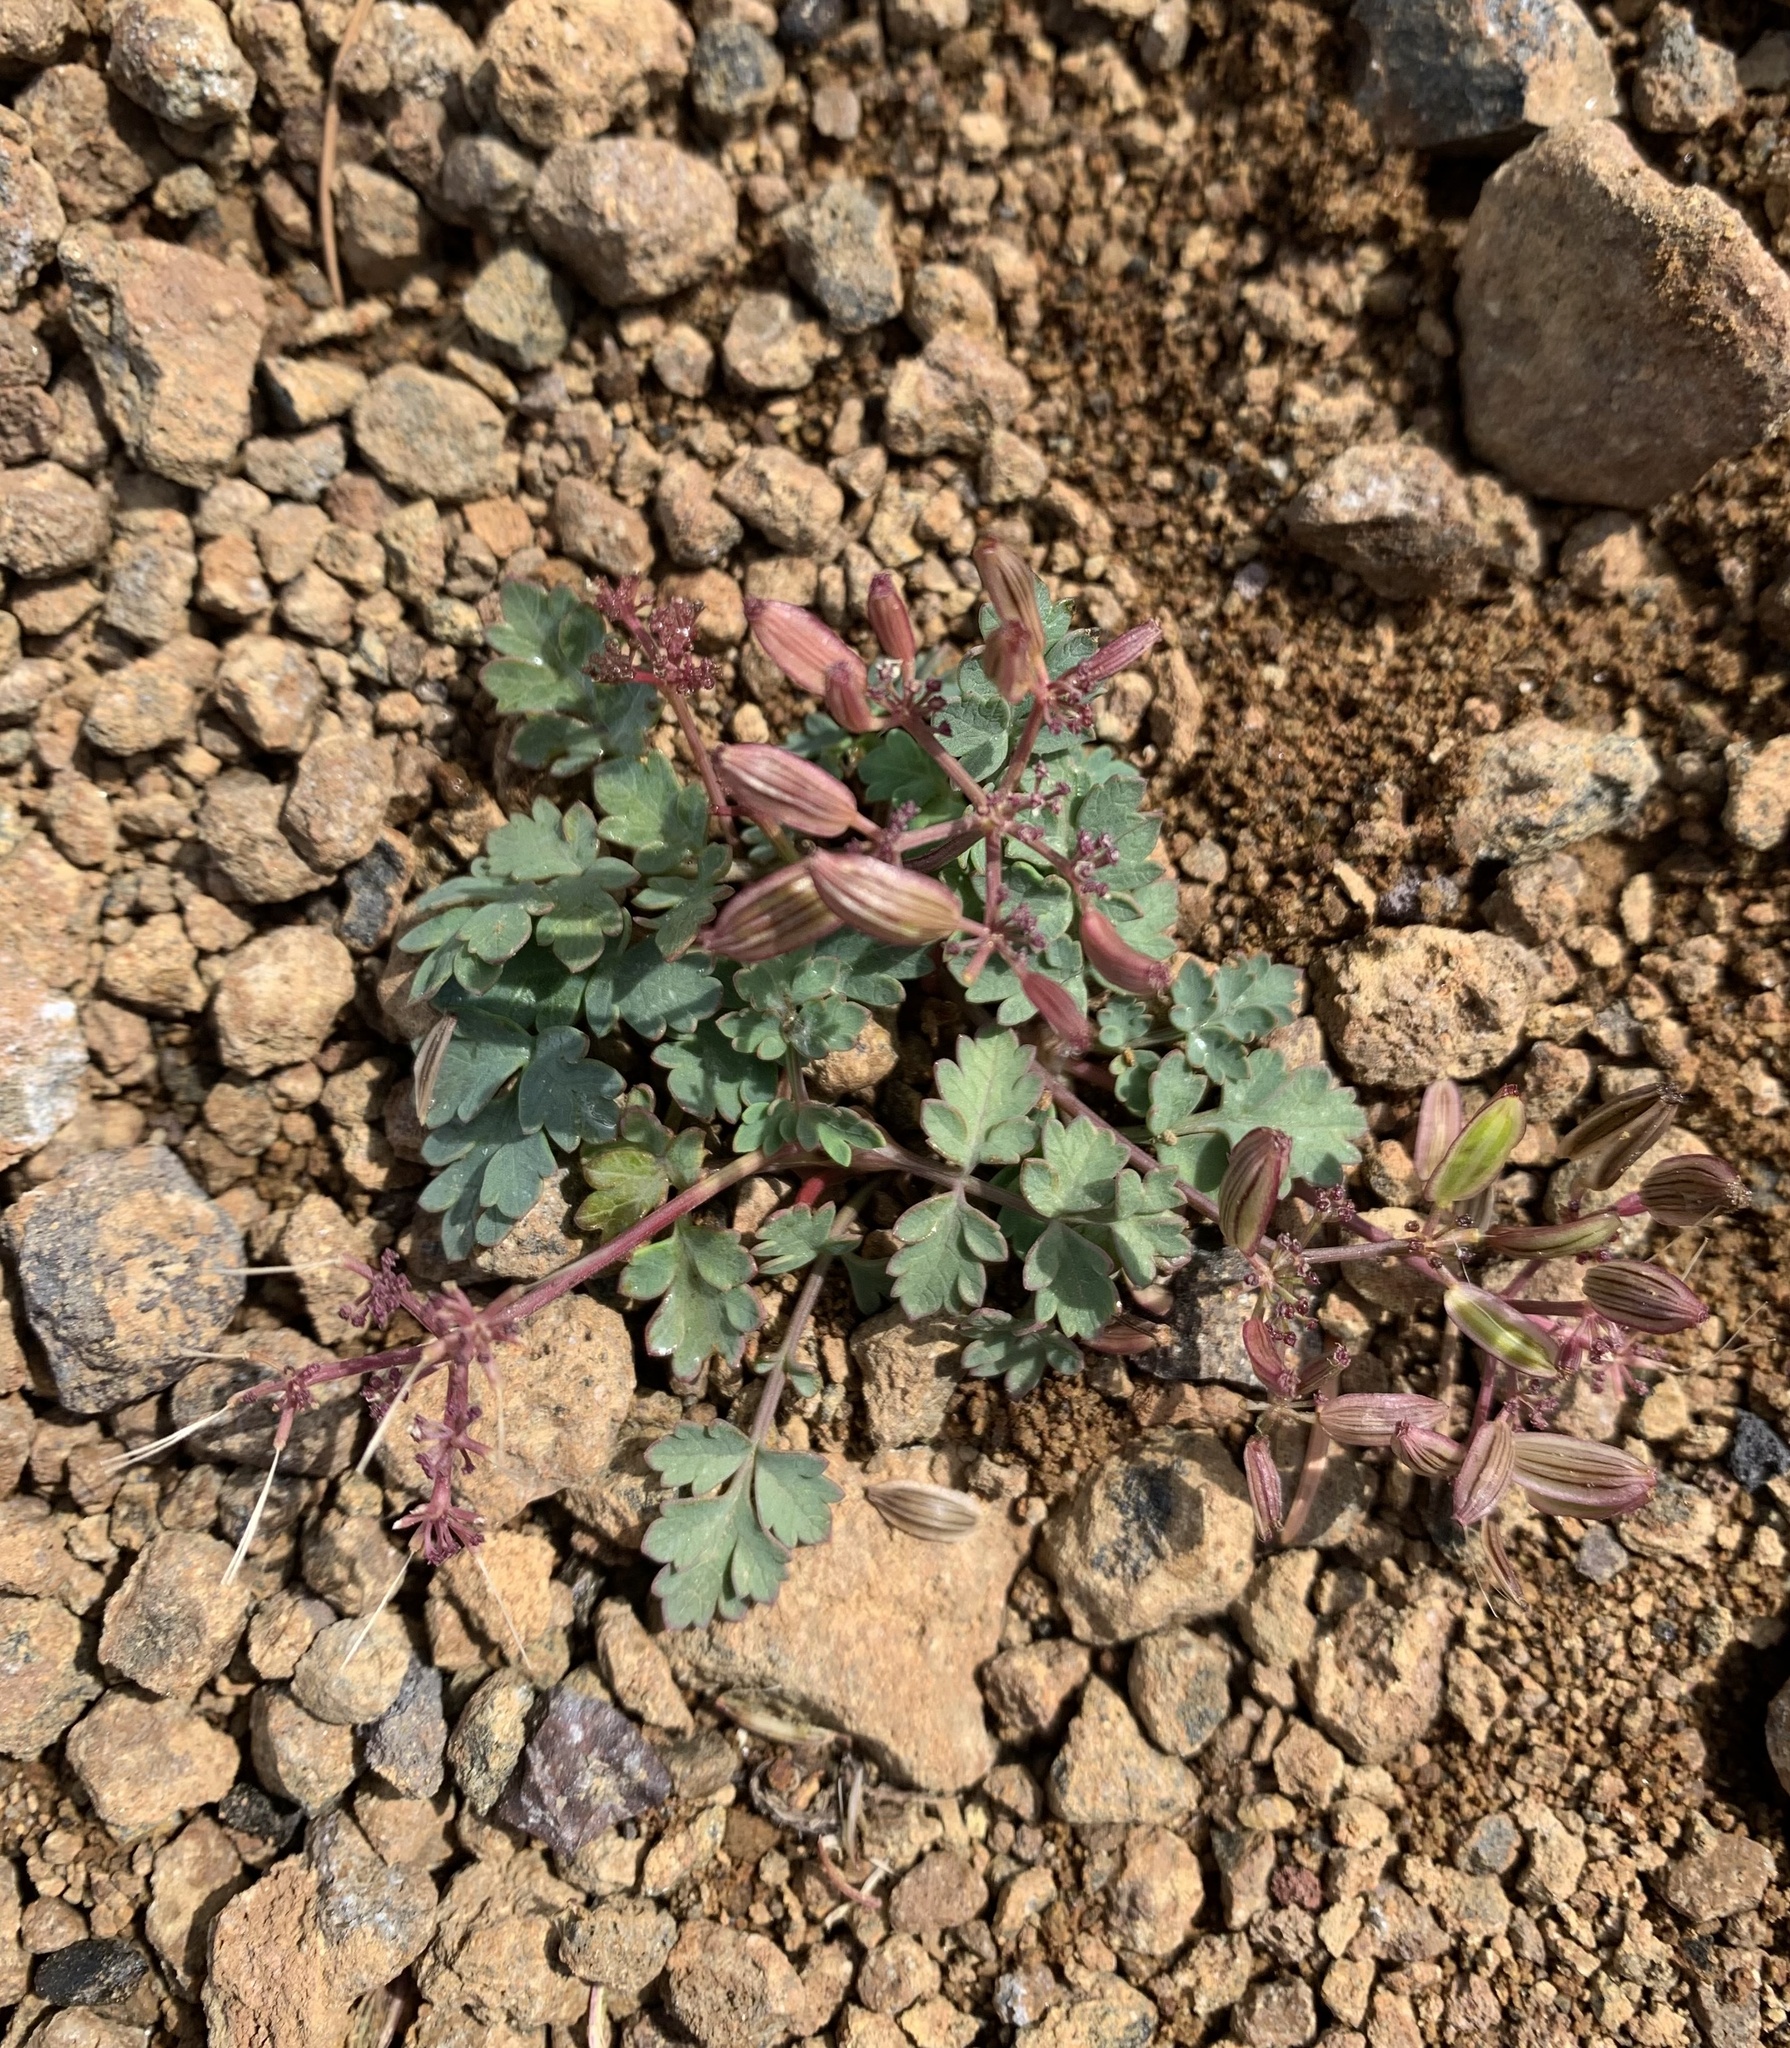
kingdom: Plantae
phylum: Tracheophyta
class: Magnoliopsida
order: Apiales
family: Apiaceae
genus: Lomatium
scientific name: Lomatium martindalei
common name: Cascade desert-parsley
